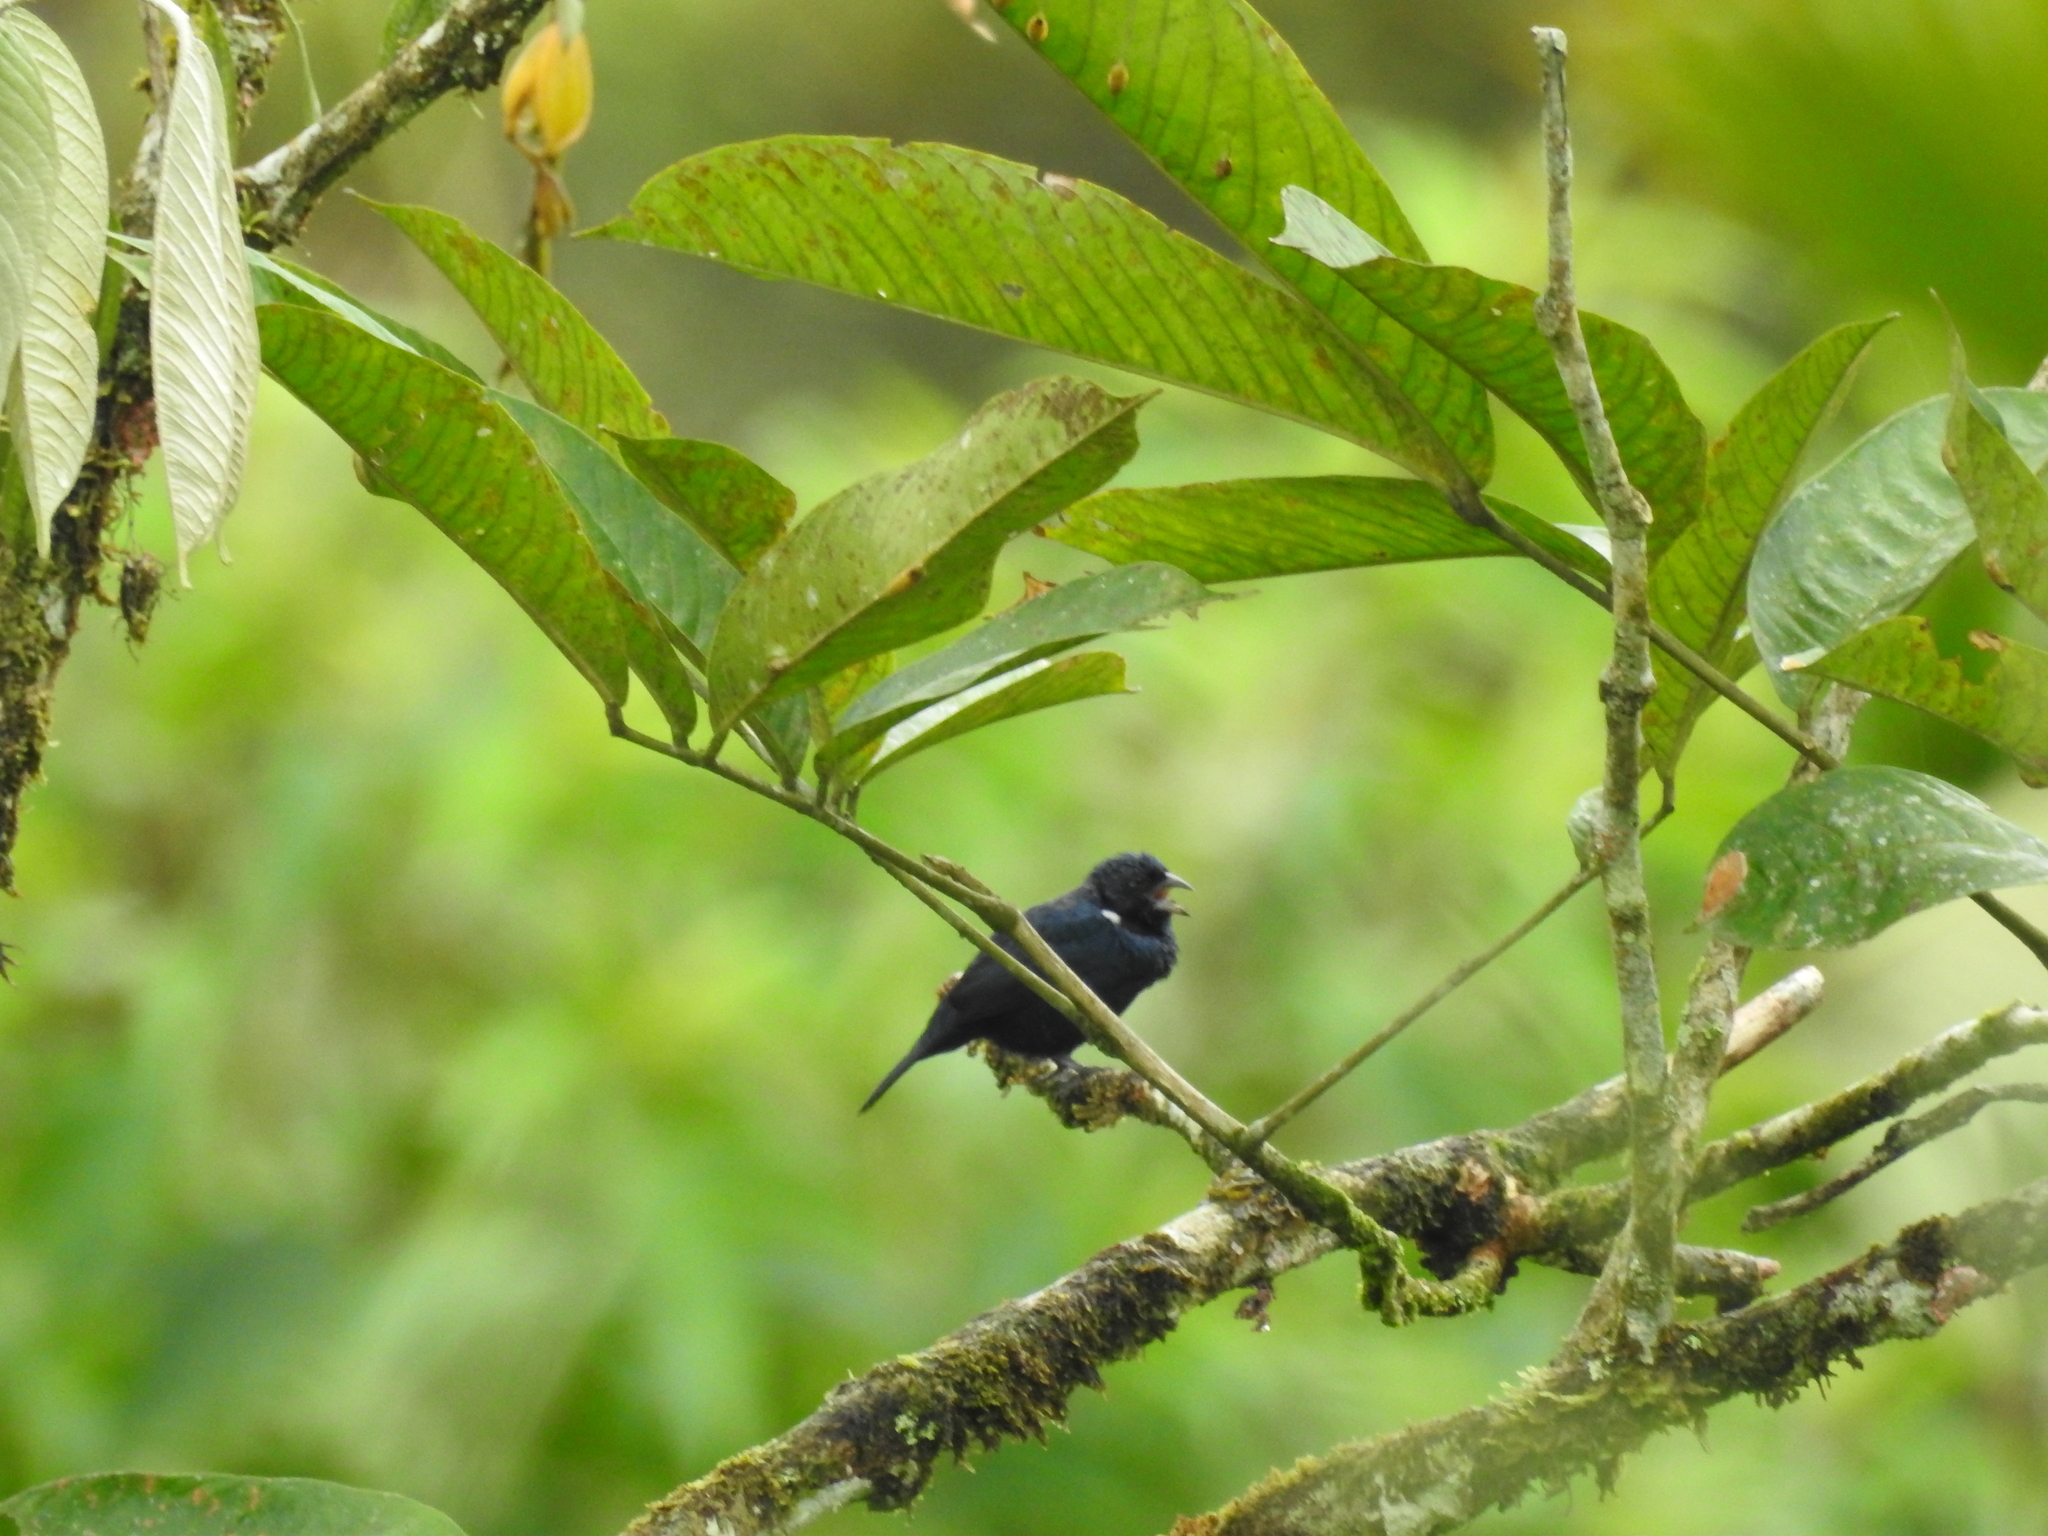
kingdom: Animalia
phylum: Chordata
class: Aves
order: Passeriformes
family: Thraupidae
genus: Volatinia
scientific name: Volatinia jacarina
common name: Blue-black grassquit
